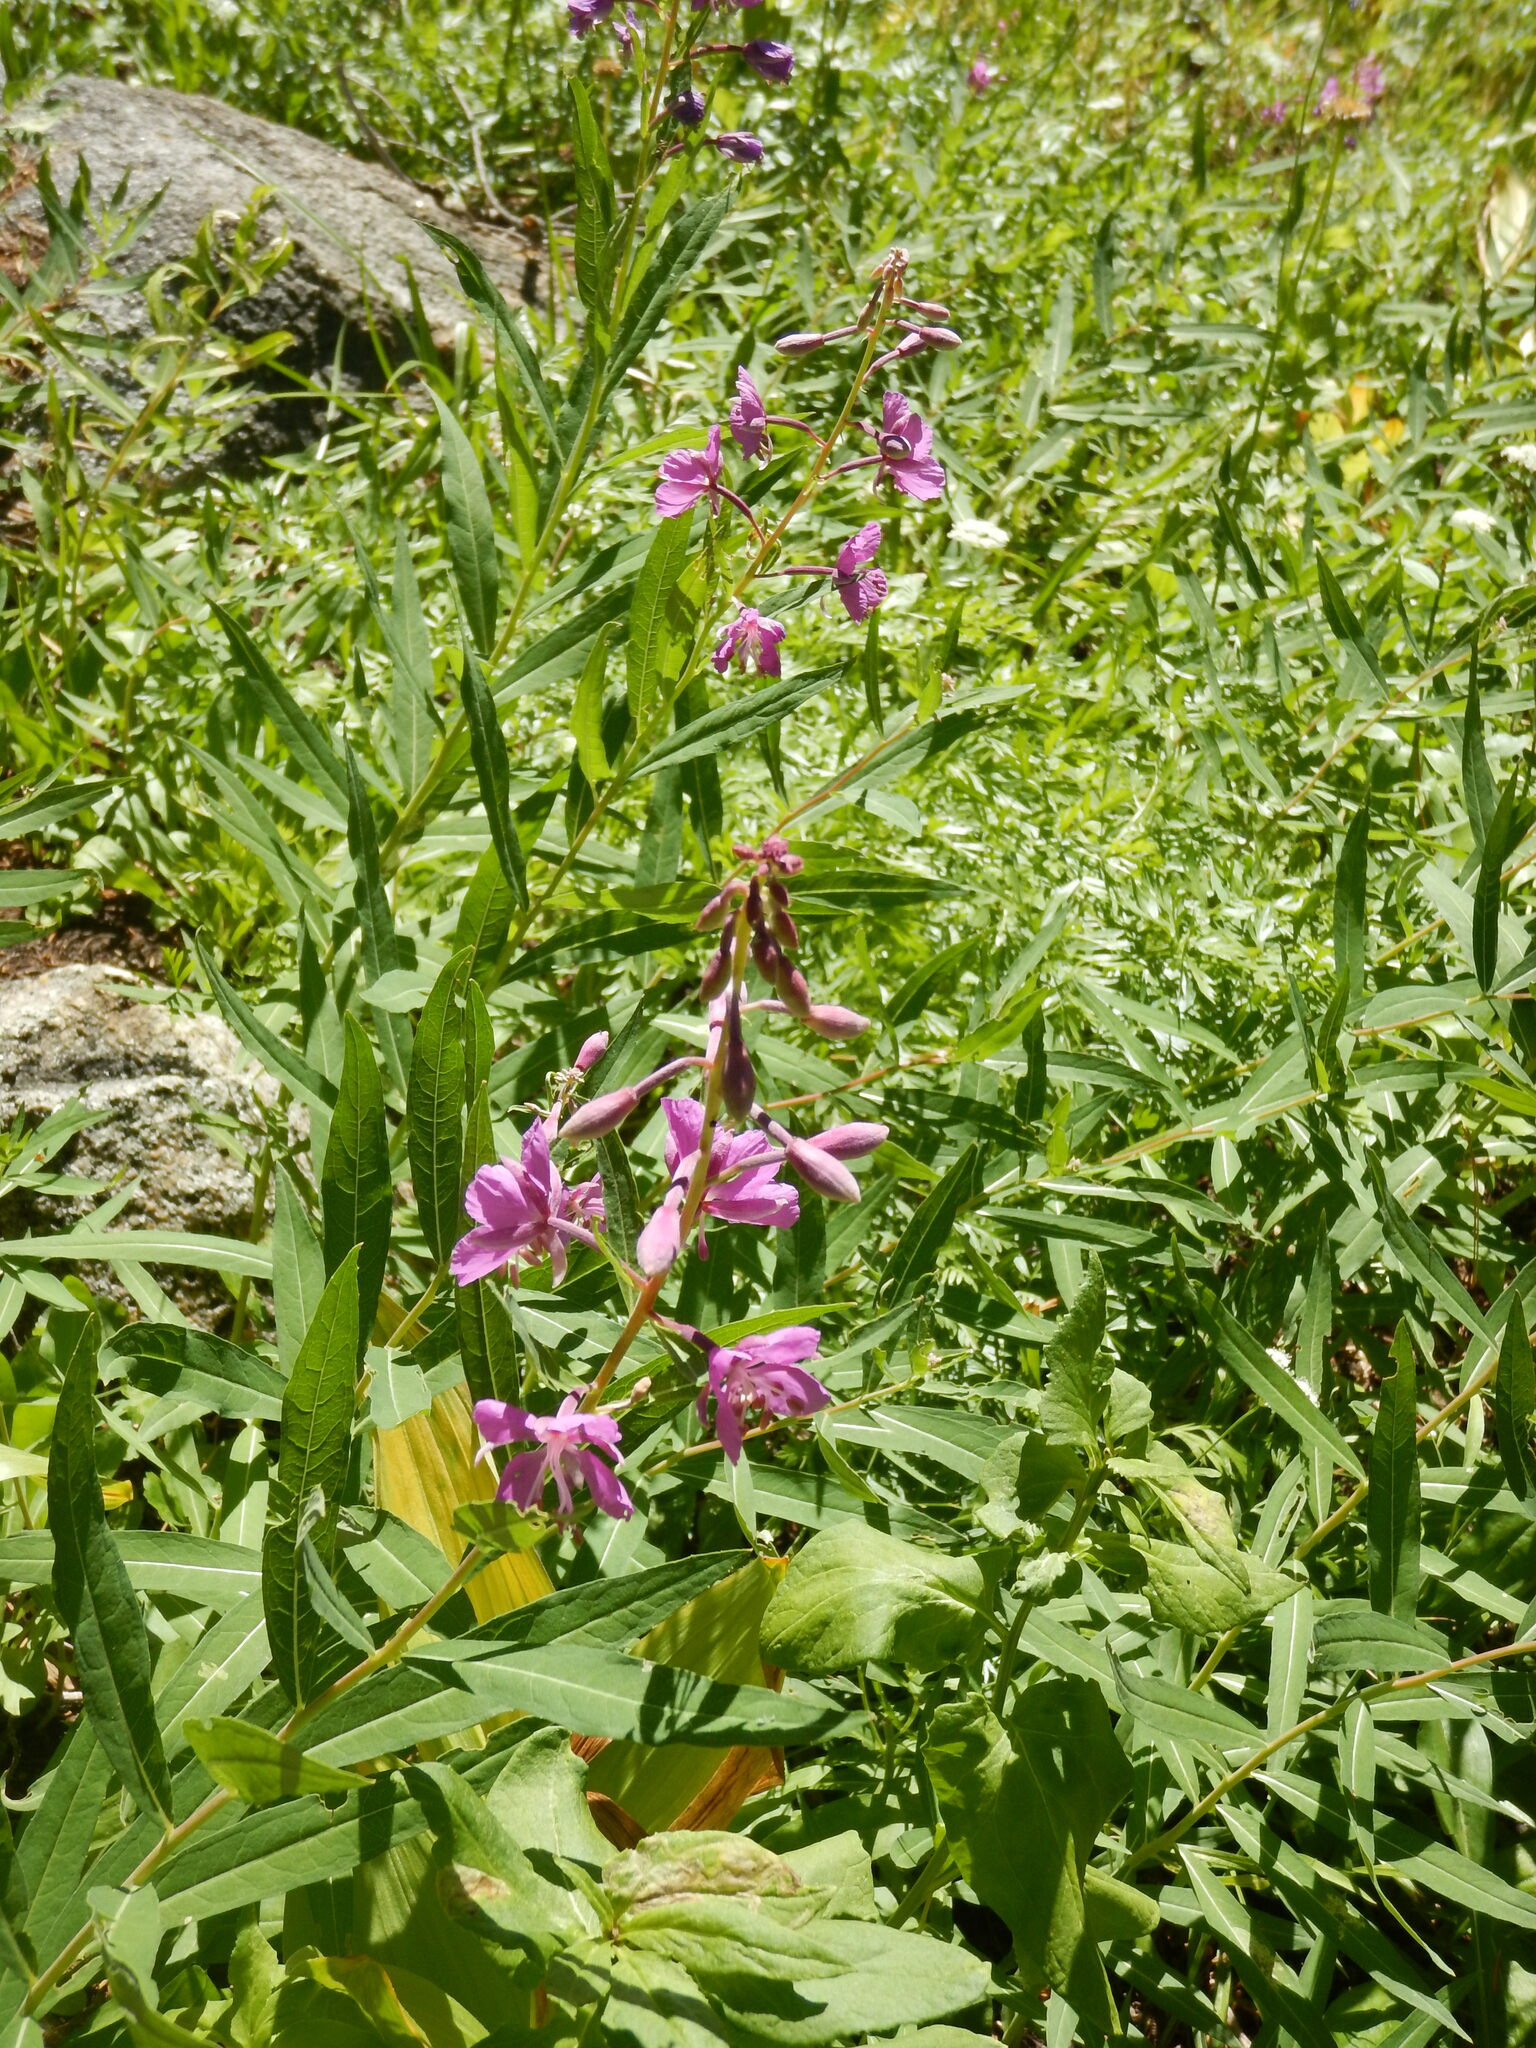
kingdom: Plantae
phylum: Tracheophyta
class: Magnoliopsida
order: Myrtales
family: Onagraceae
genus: Chamaenerion
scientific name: Chamaenerion angustifolium
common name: Fireweed
